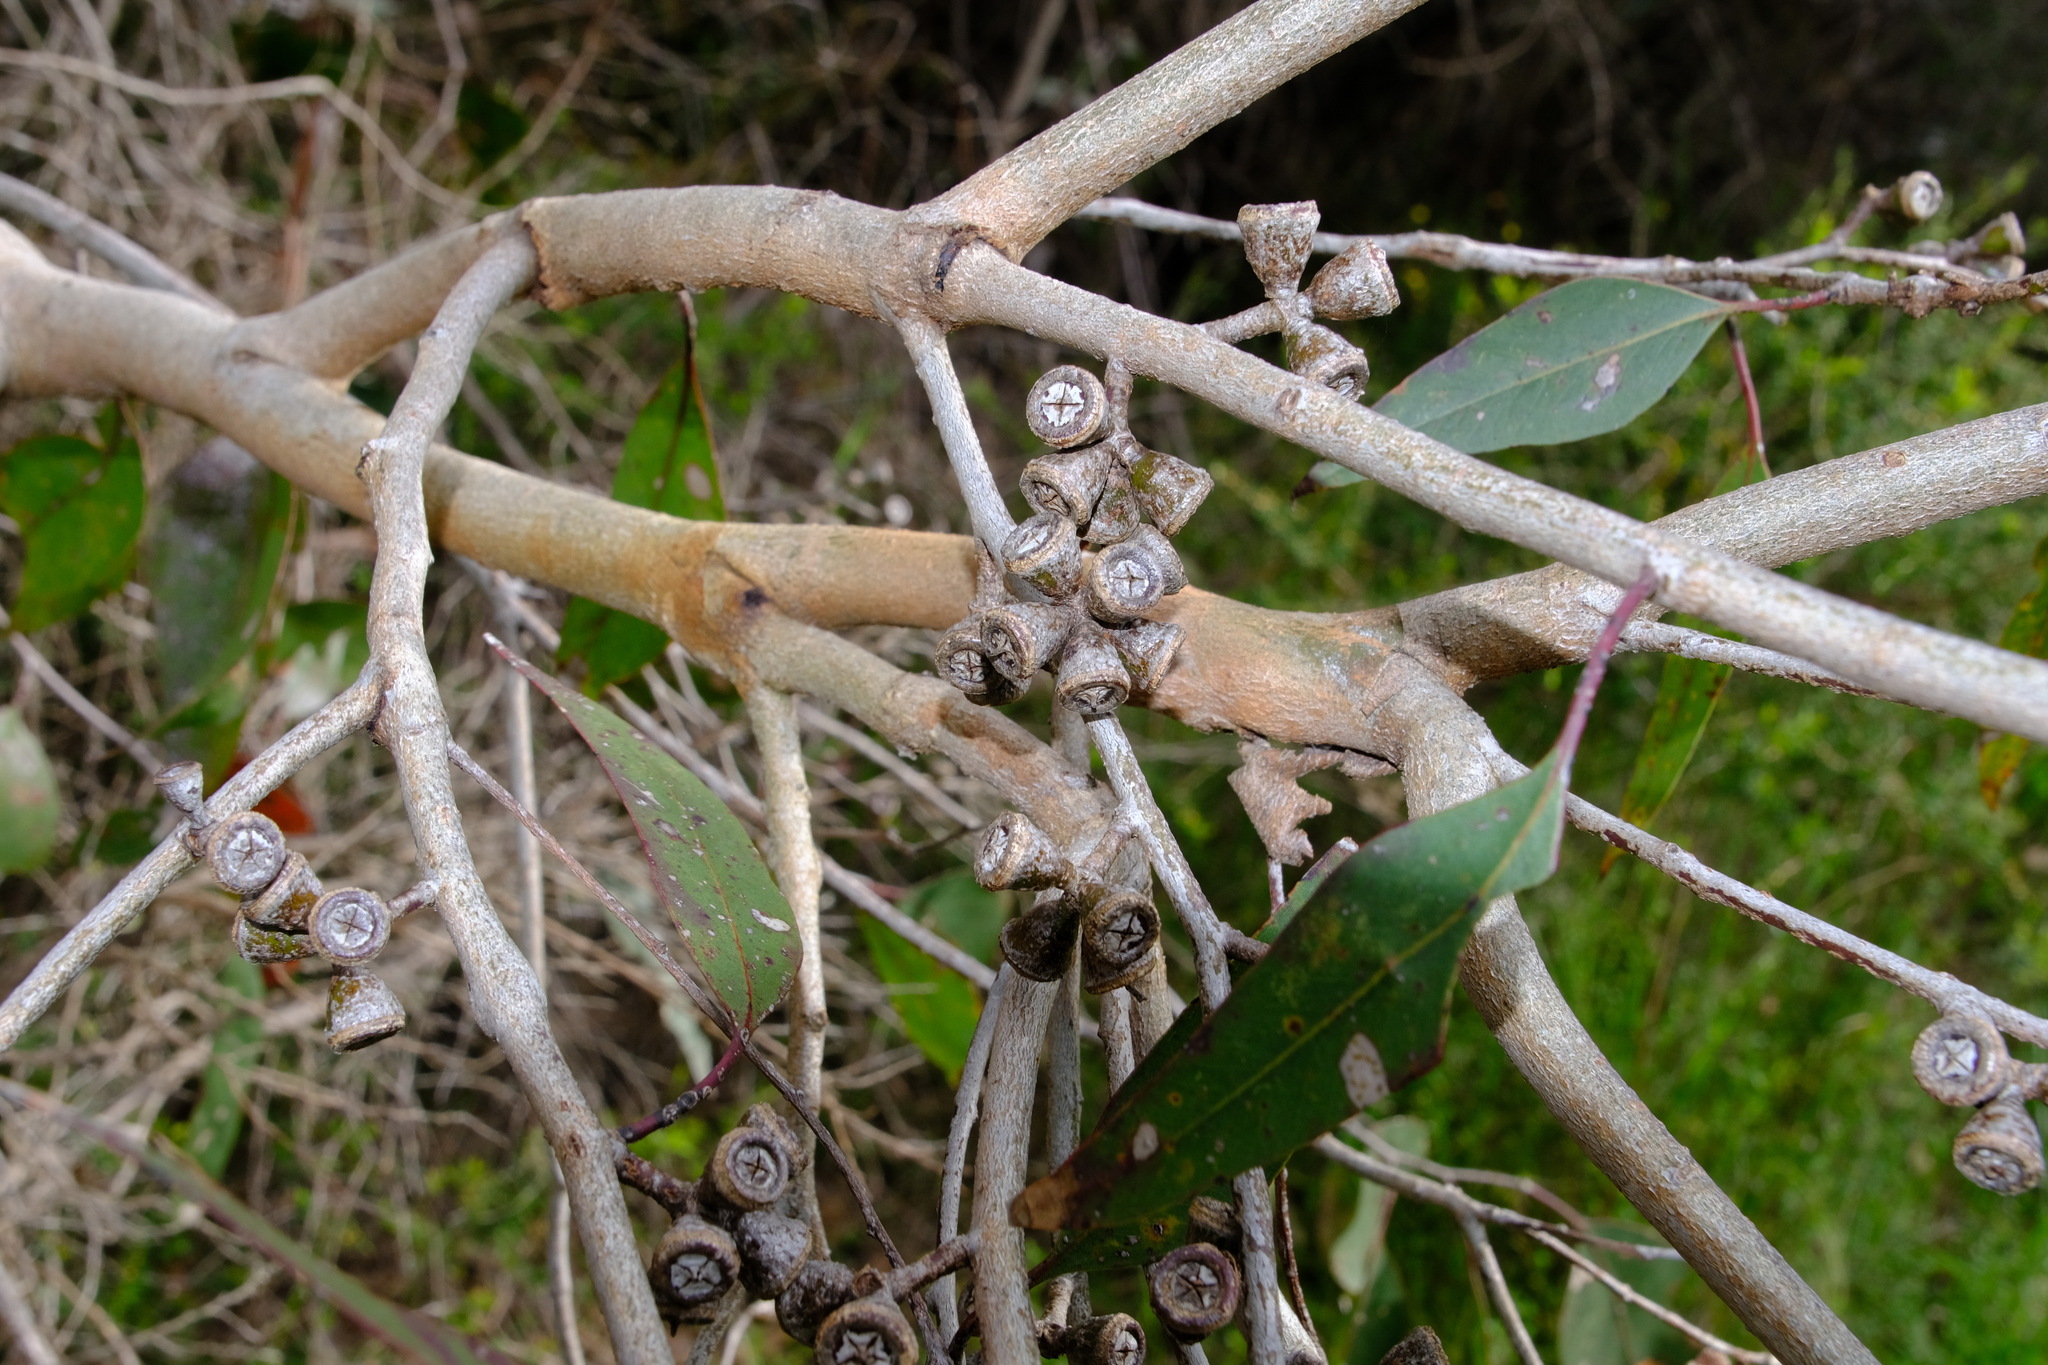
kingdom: Plantae
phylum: Tracheophyta
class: Magnoliopsida
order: Myrtales
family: Myrtaceae
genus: Eucalyptus
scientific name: Eucalyptus ovata
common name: Black-gum
